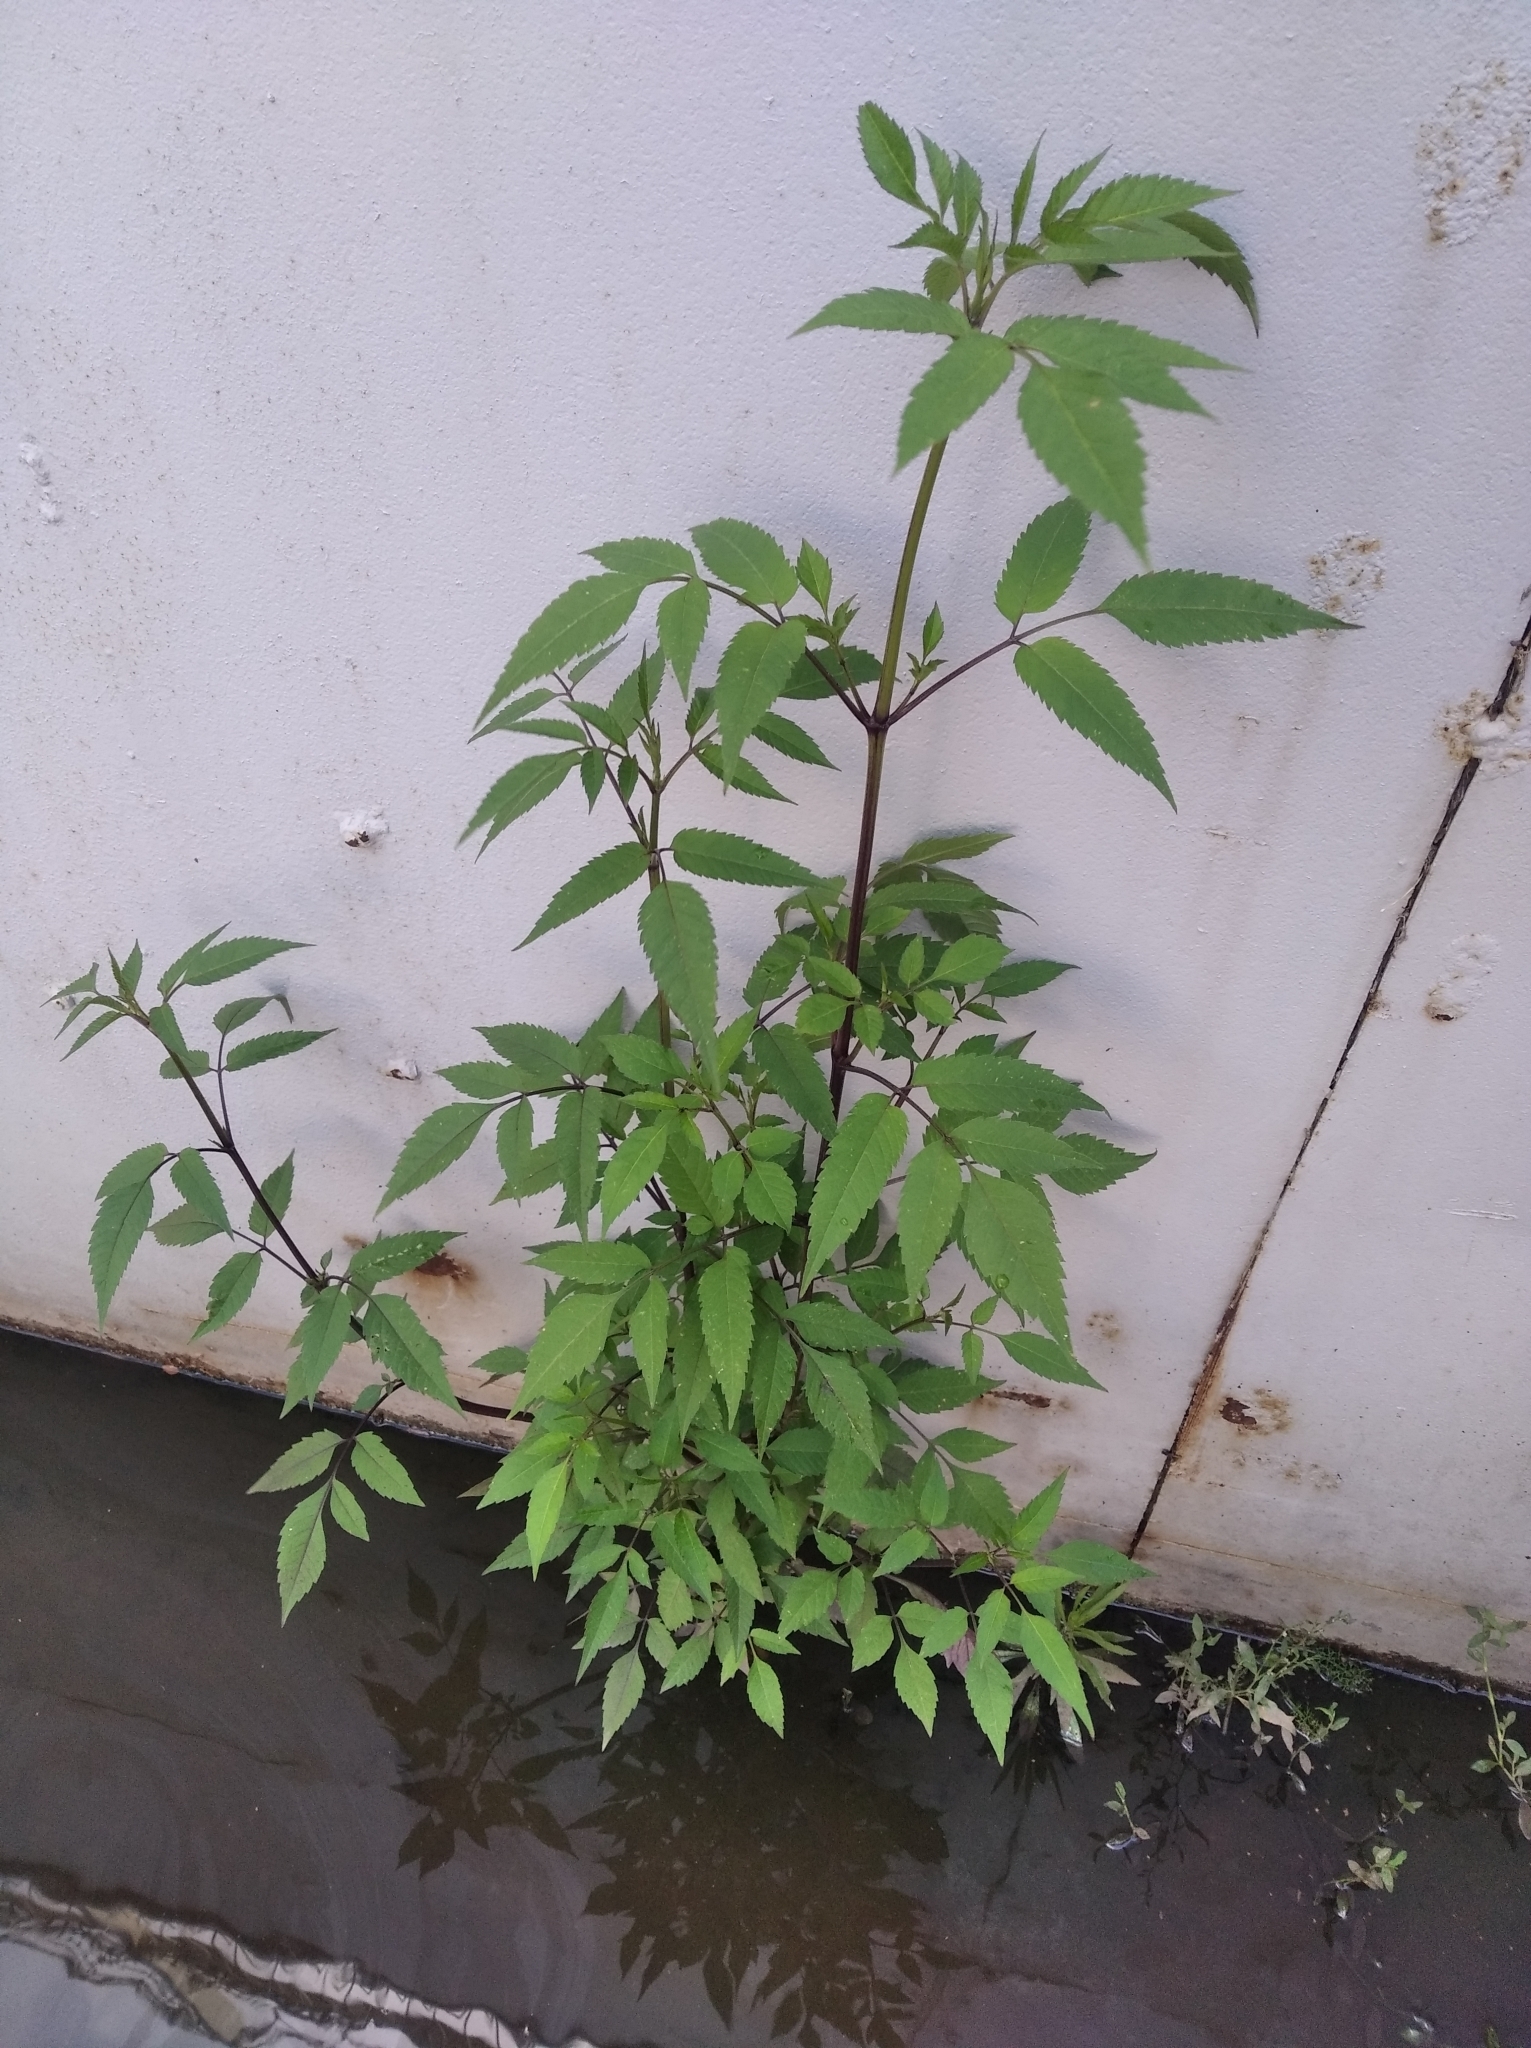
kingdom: Plantae
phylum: Tracheophyta
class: Magnoliopsida
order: Asterales
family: Asteraceae
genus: Bidens
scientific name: Bidens frondosa
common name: Beggarticks
